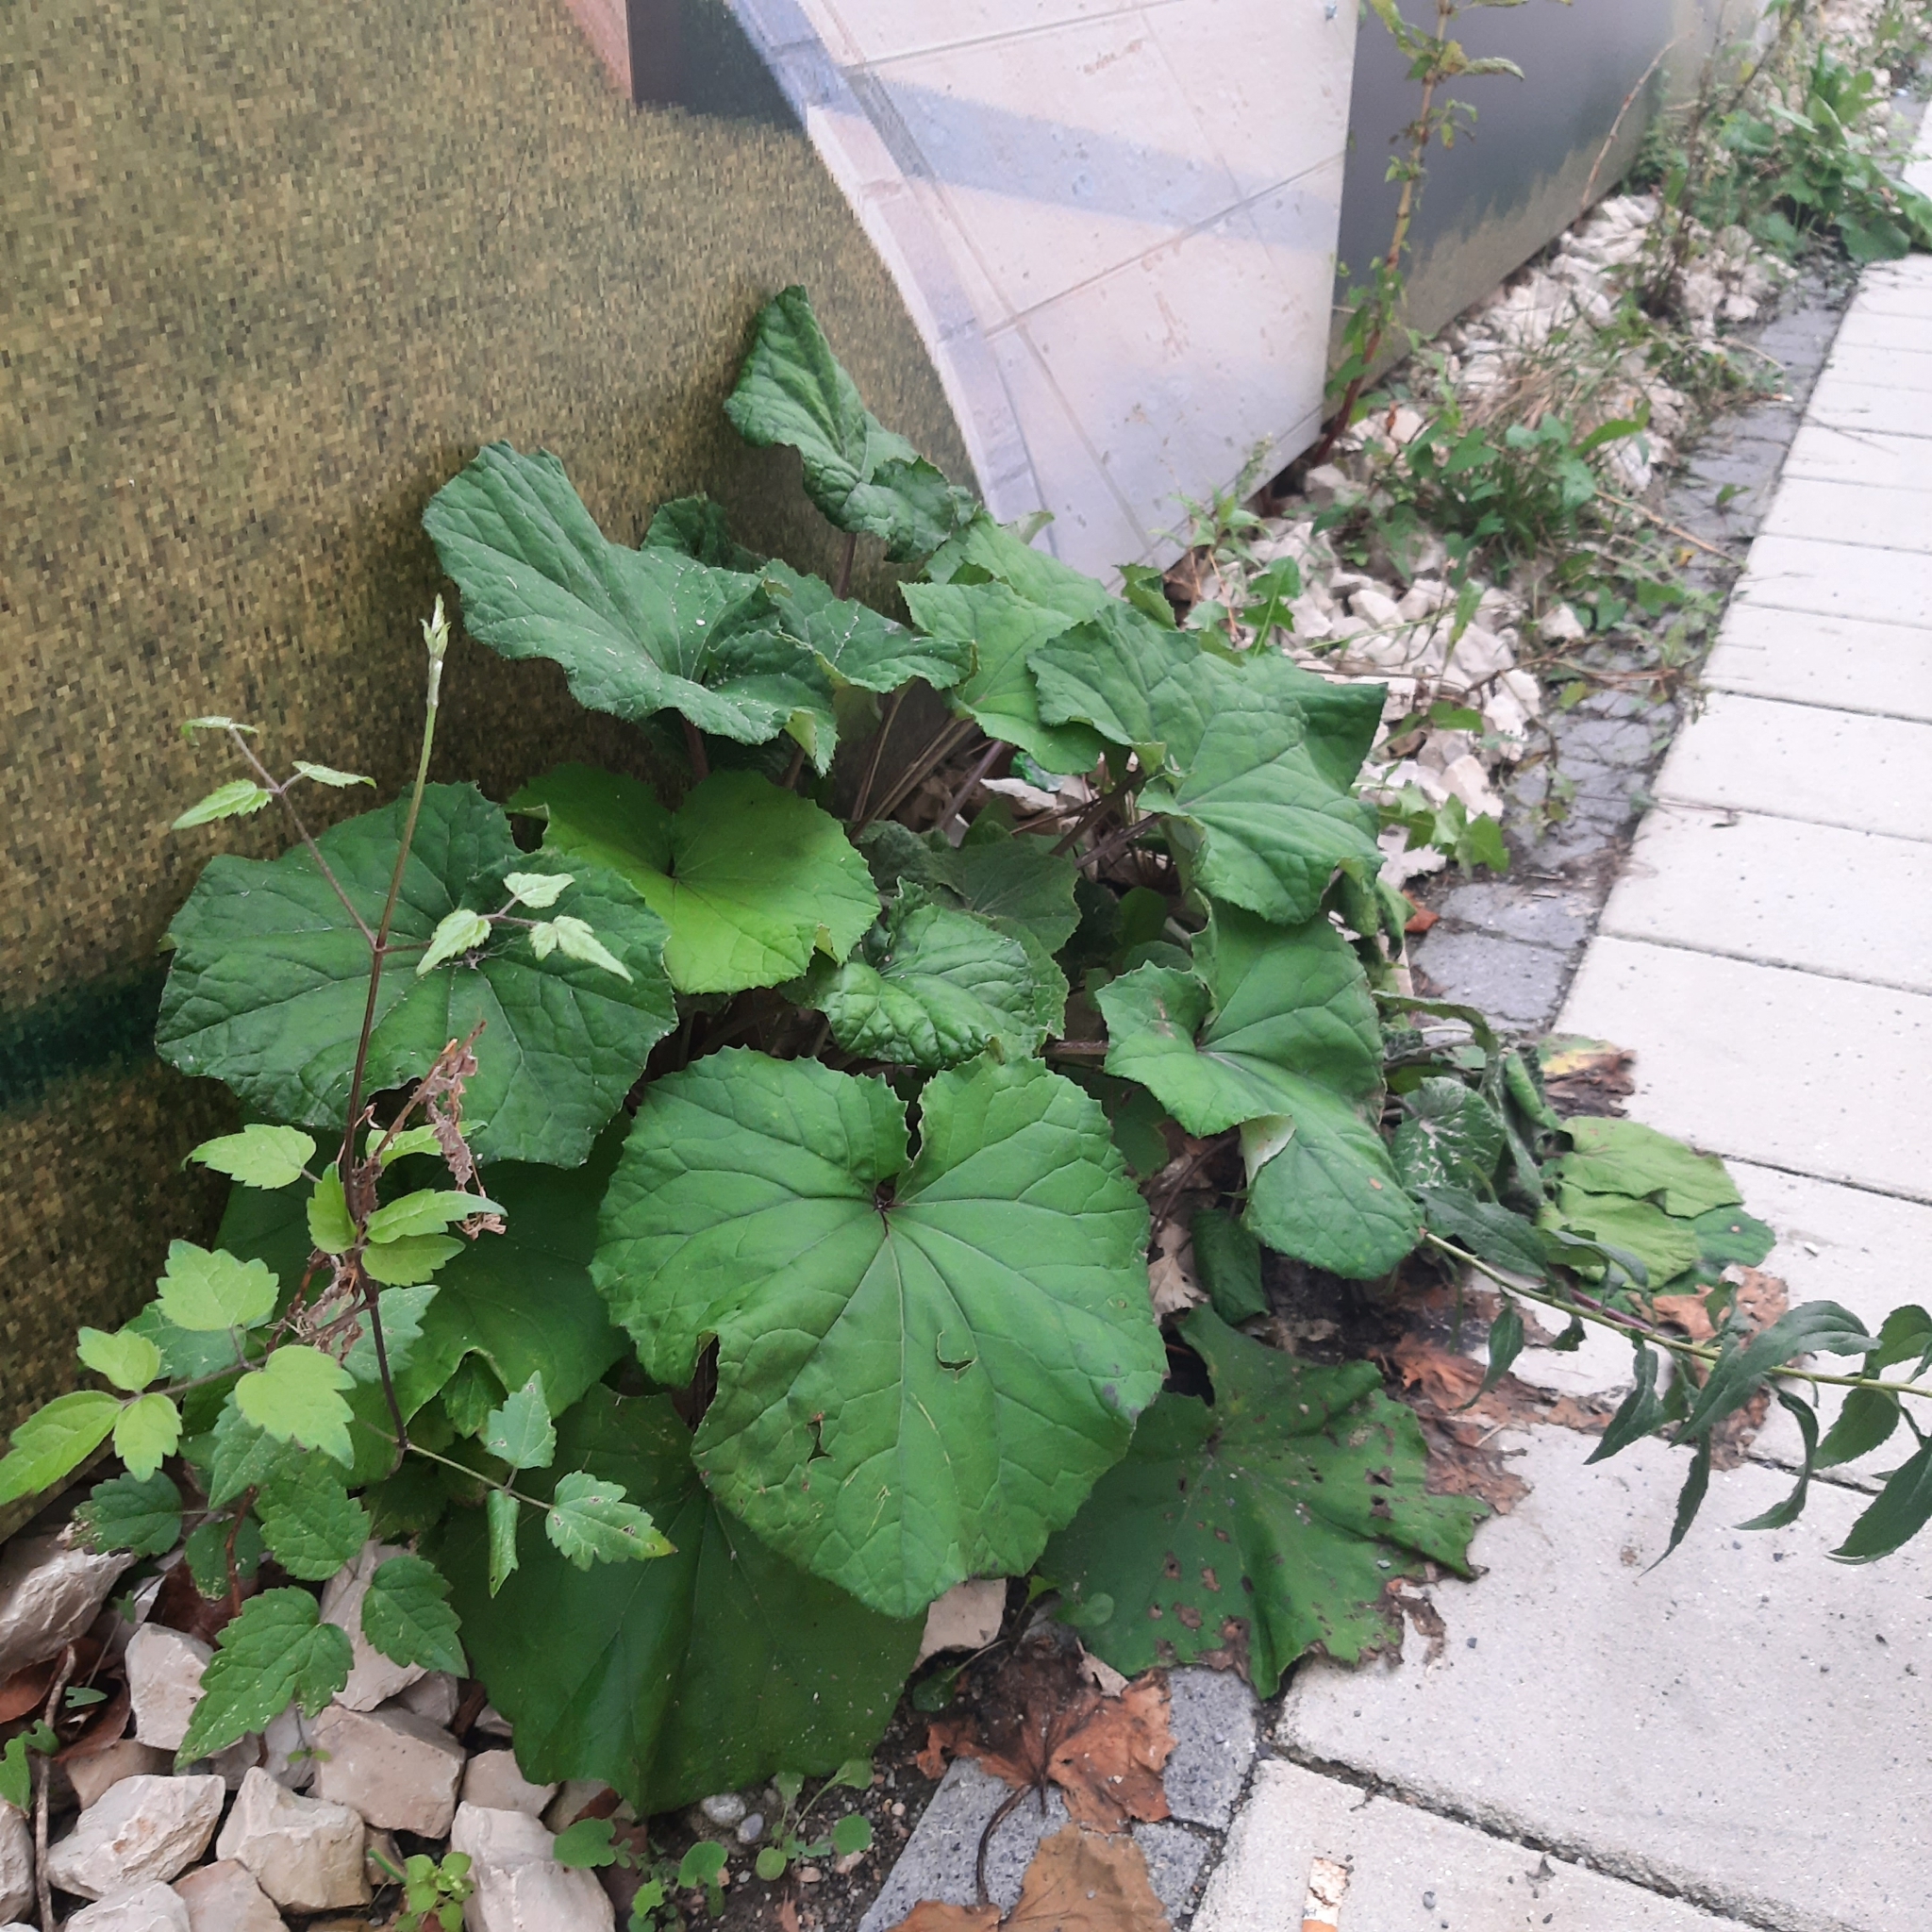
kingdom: Plantae
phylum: Tracheophyta
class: Magnoliopsida
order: Asterales
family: Asteraceae
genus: Tussilago
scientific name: Tussilago farfara
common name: Coltsfoot
